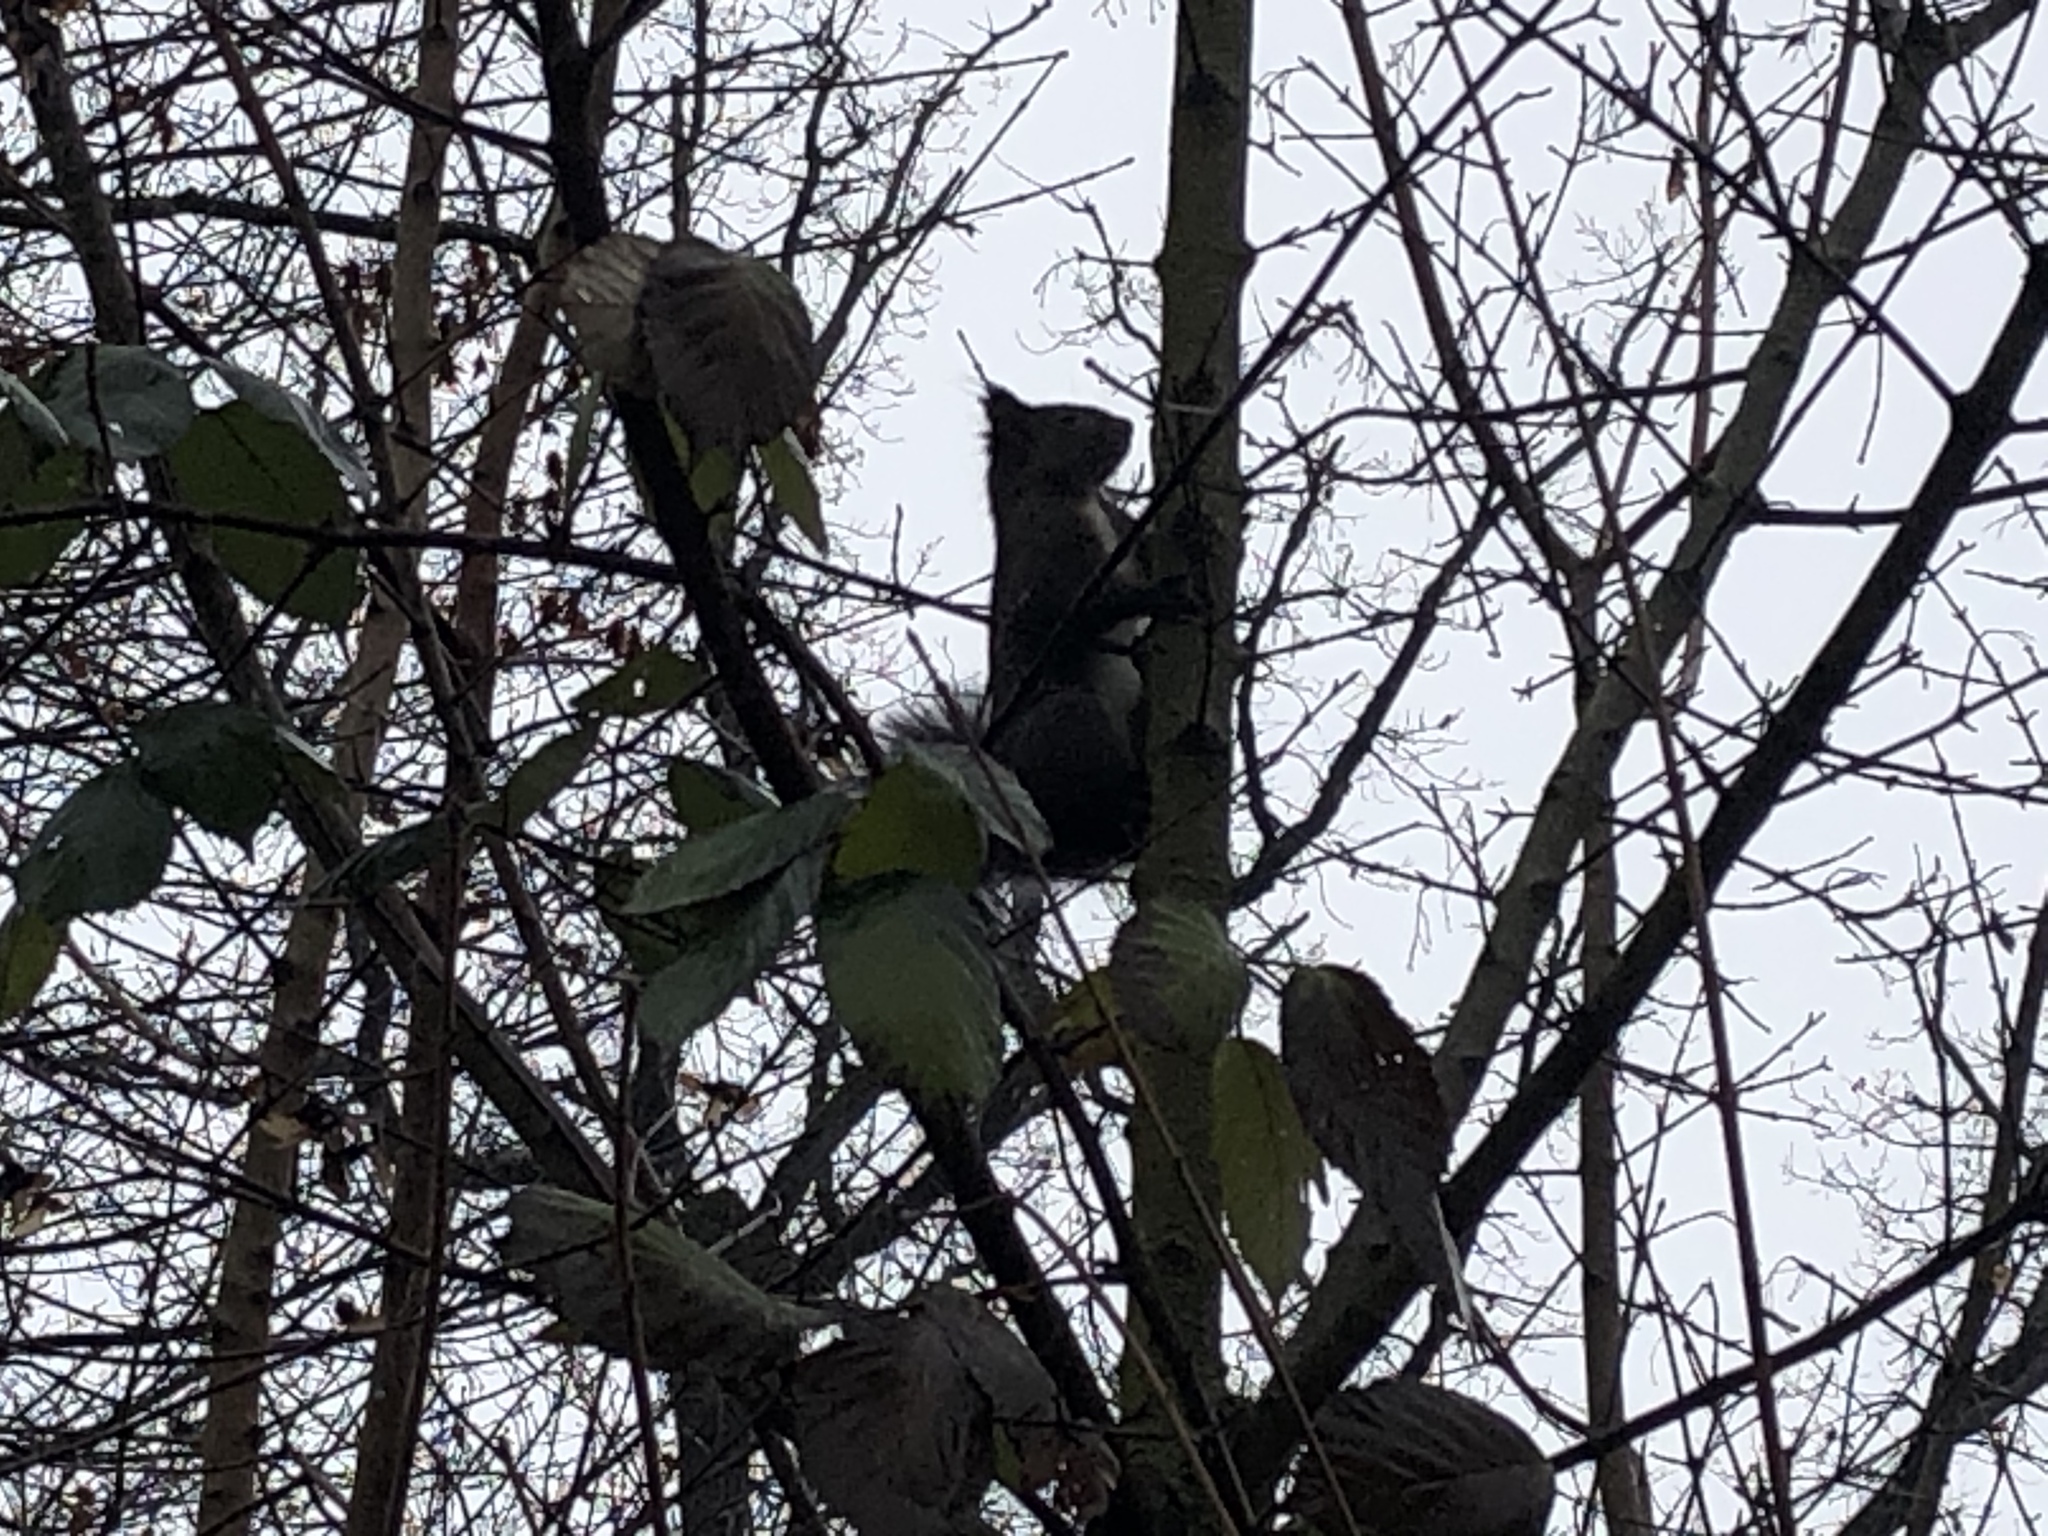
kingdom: Animalia
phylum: Chordata
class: Mammalia
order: Rodentia
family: Sciuridae
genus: Sciurus
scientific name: Sciurus vulgaris
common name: Eurasian red squirrel
